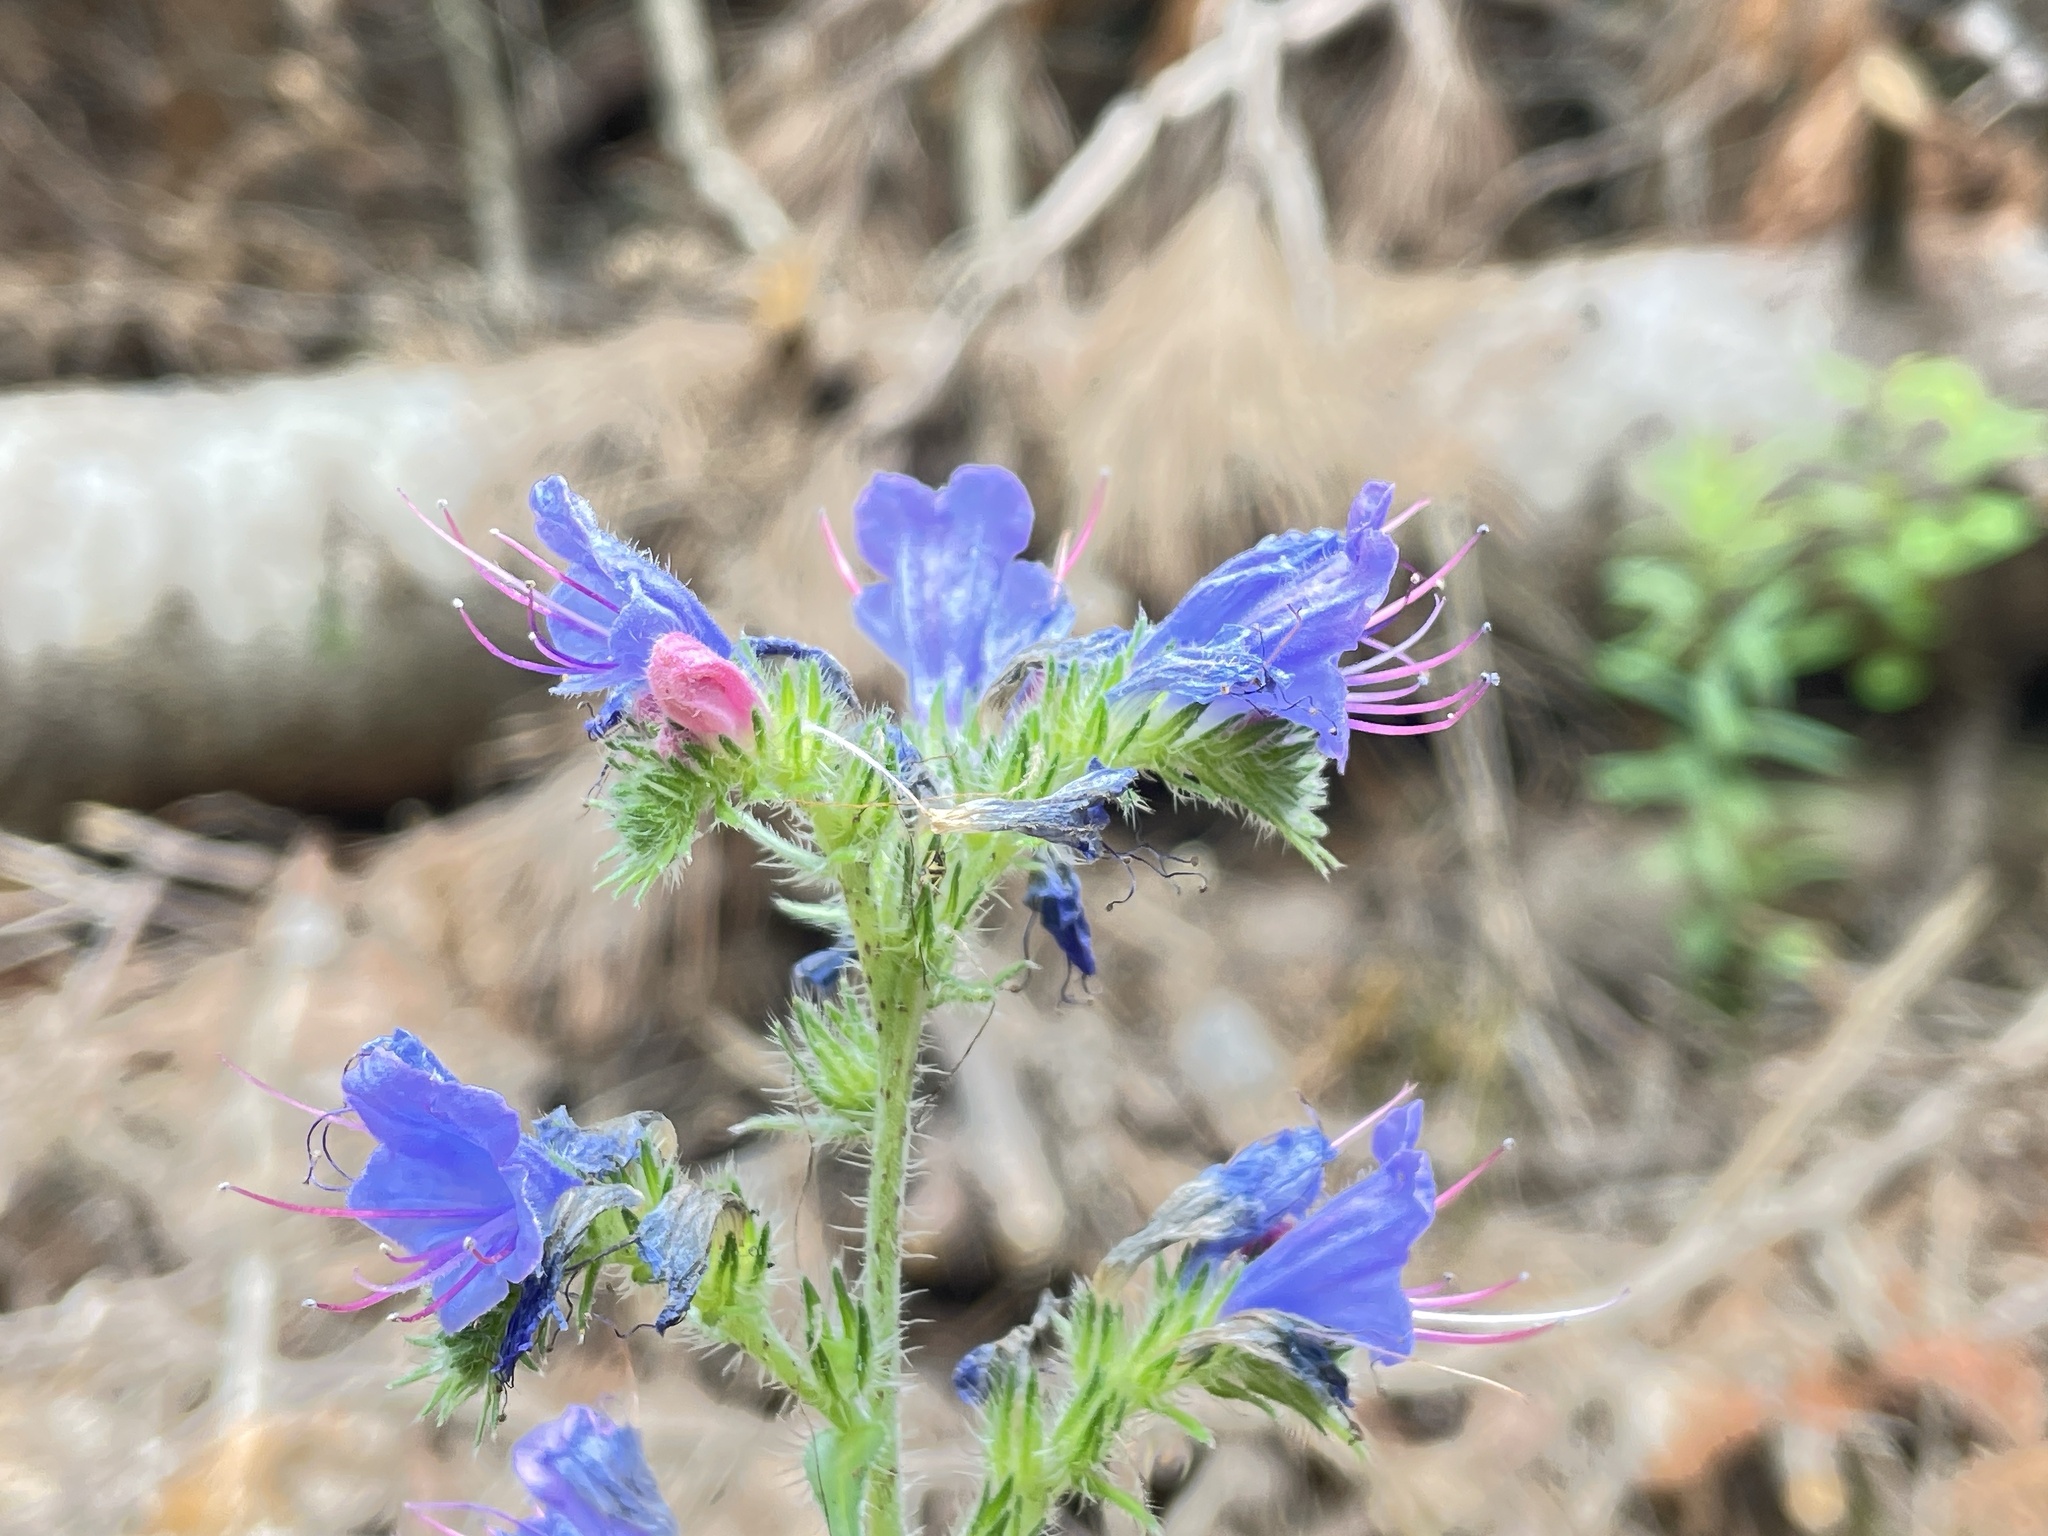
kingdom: Plantae
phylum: Tracheophyta
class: Magnoliopsida
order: Boraginales
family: Boraginaceae
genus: Echium
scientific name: Echium vulgare
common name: Common viper's bugloss
